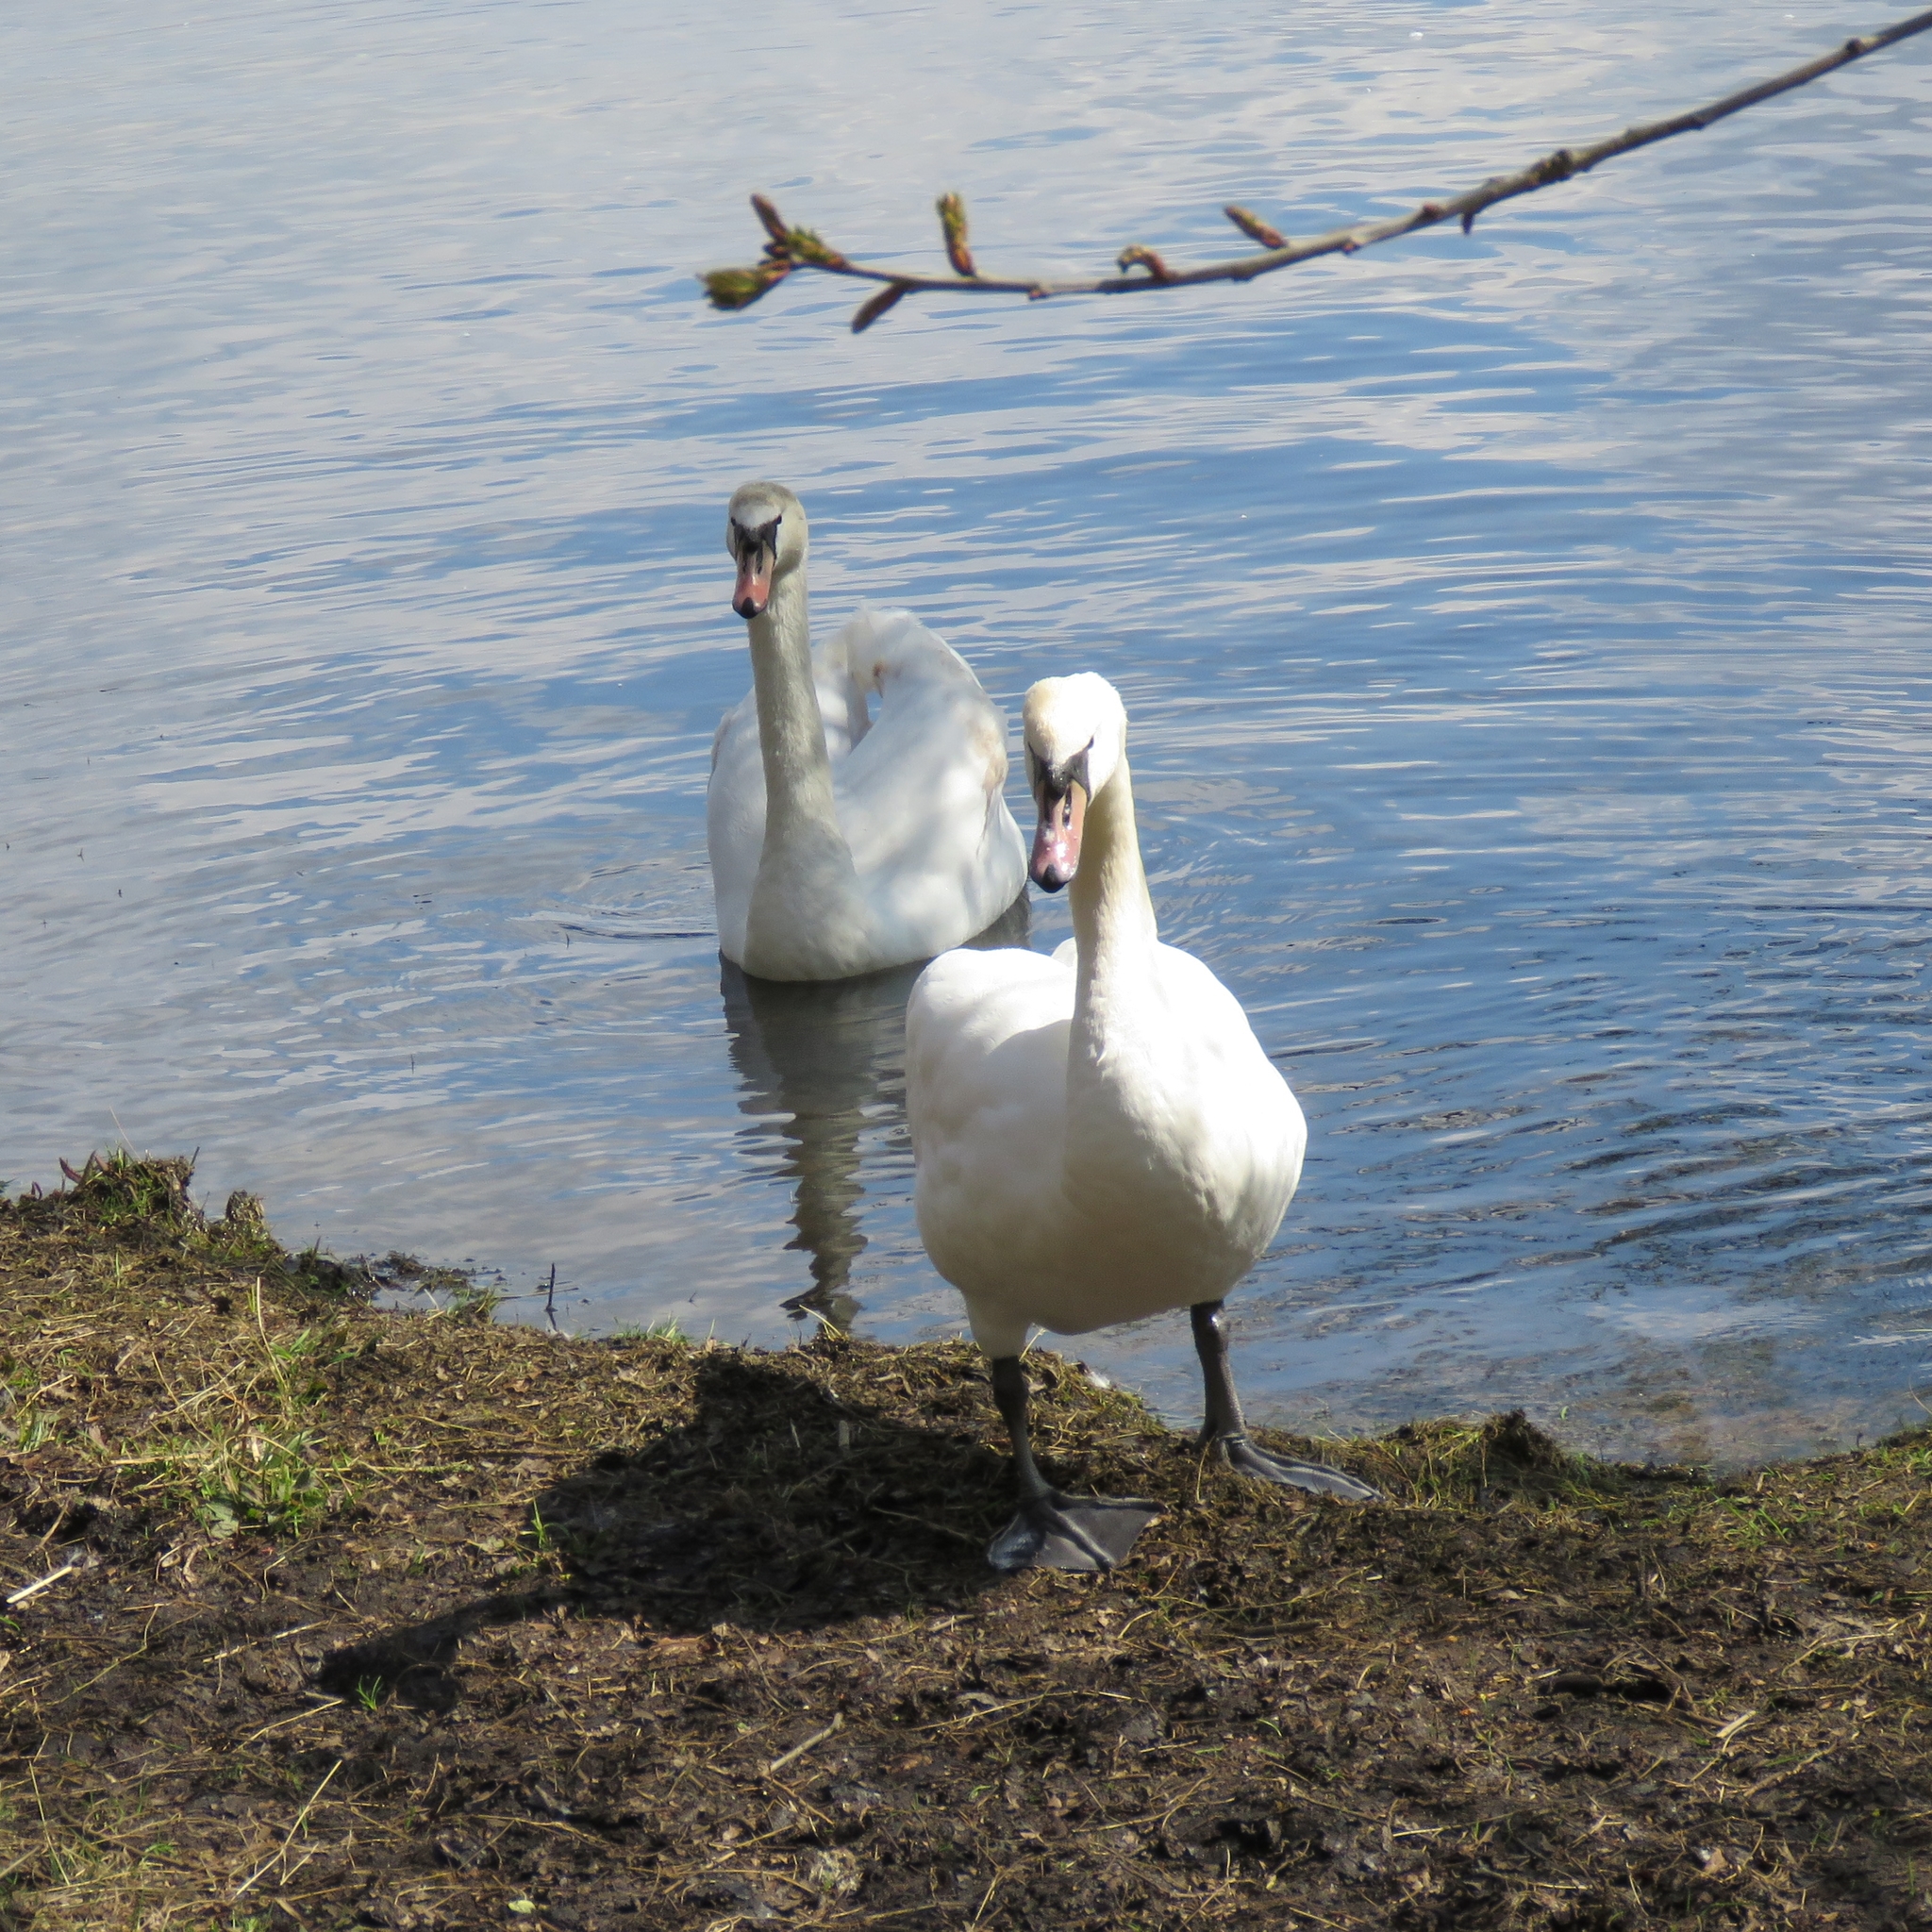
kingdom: Animalia
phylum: Chordata
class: Aves
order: Anseriformes
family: Anatidae
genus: Cygnus
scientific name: Cygnus olor
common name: Mute swan
